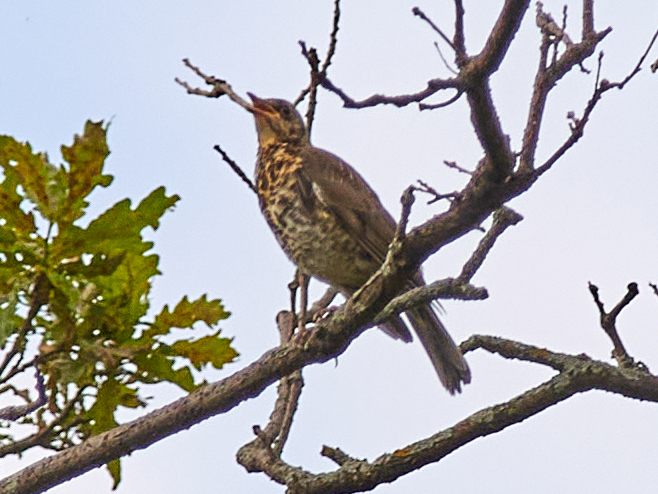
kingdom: Animalia
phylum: Chordata
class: Aves
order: Passeriformes
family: Turdidae
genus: Turdus
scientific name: Turdus pilaris
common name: Fieldfare
